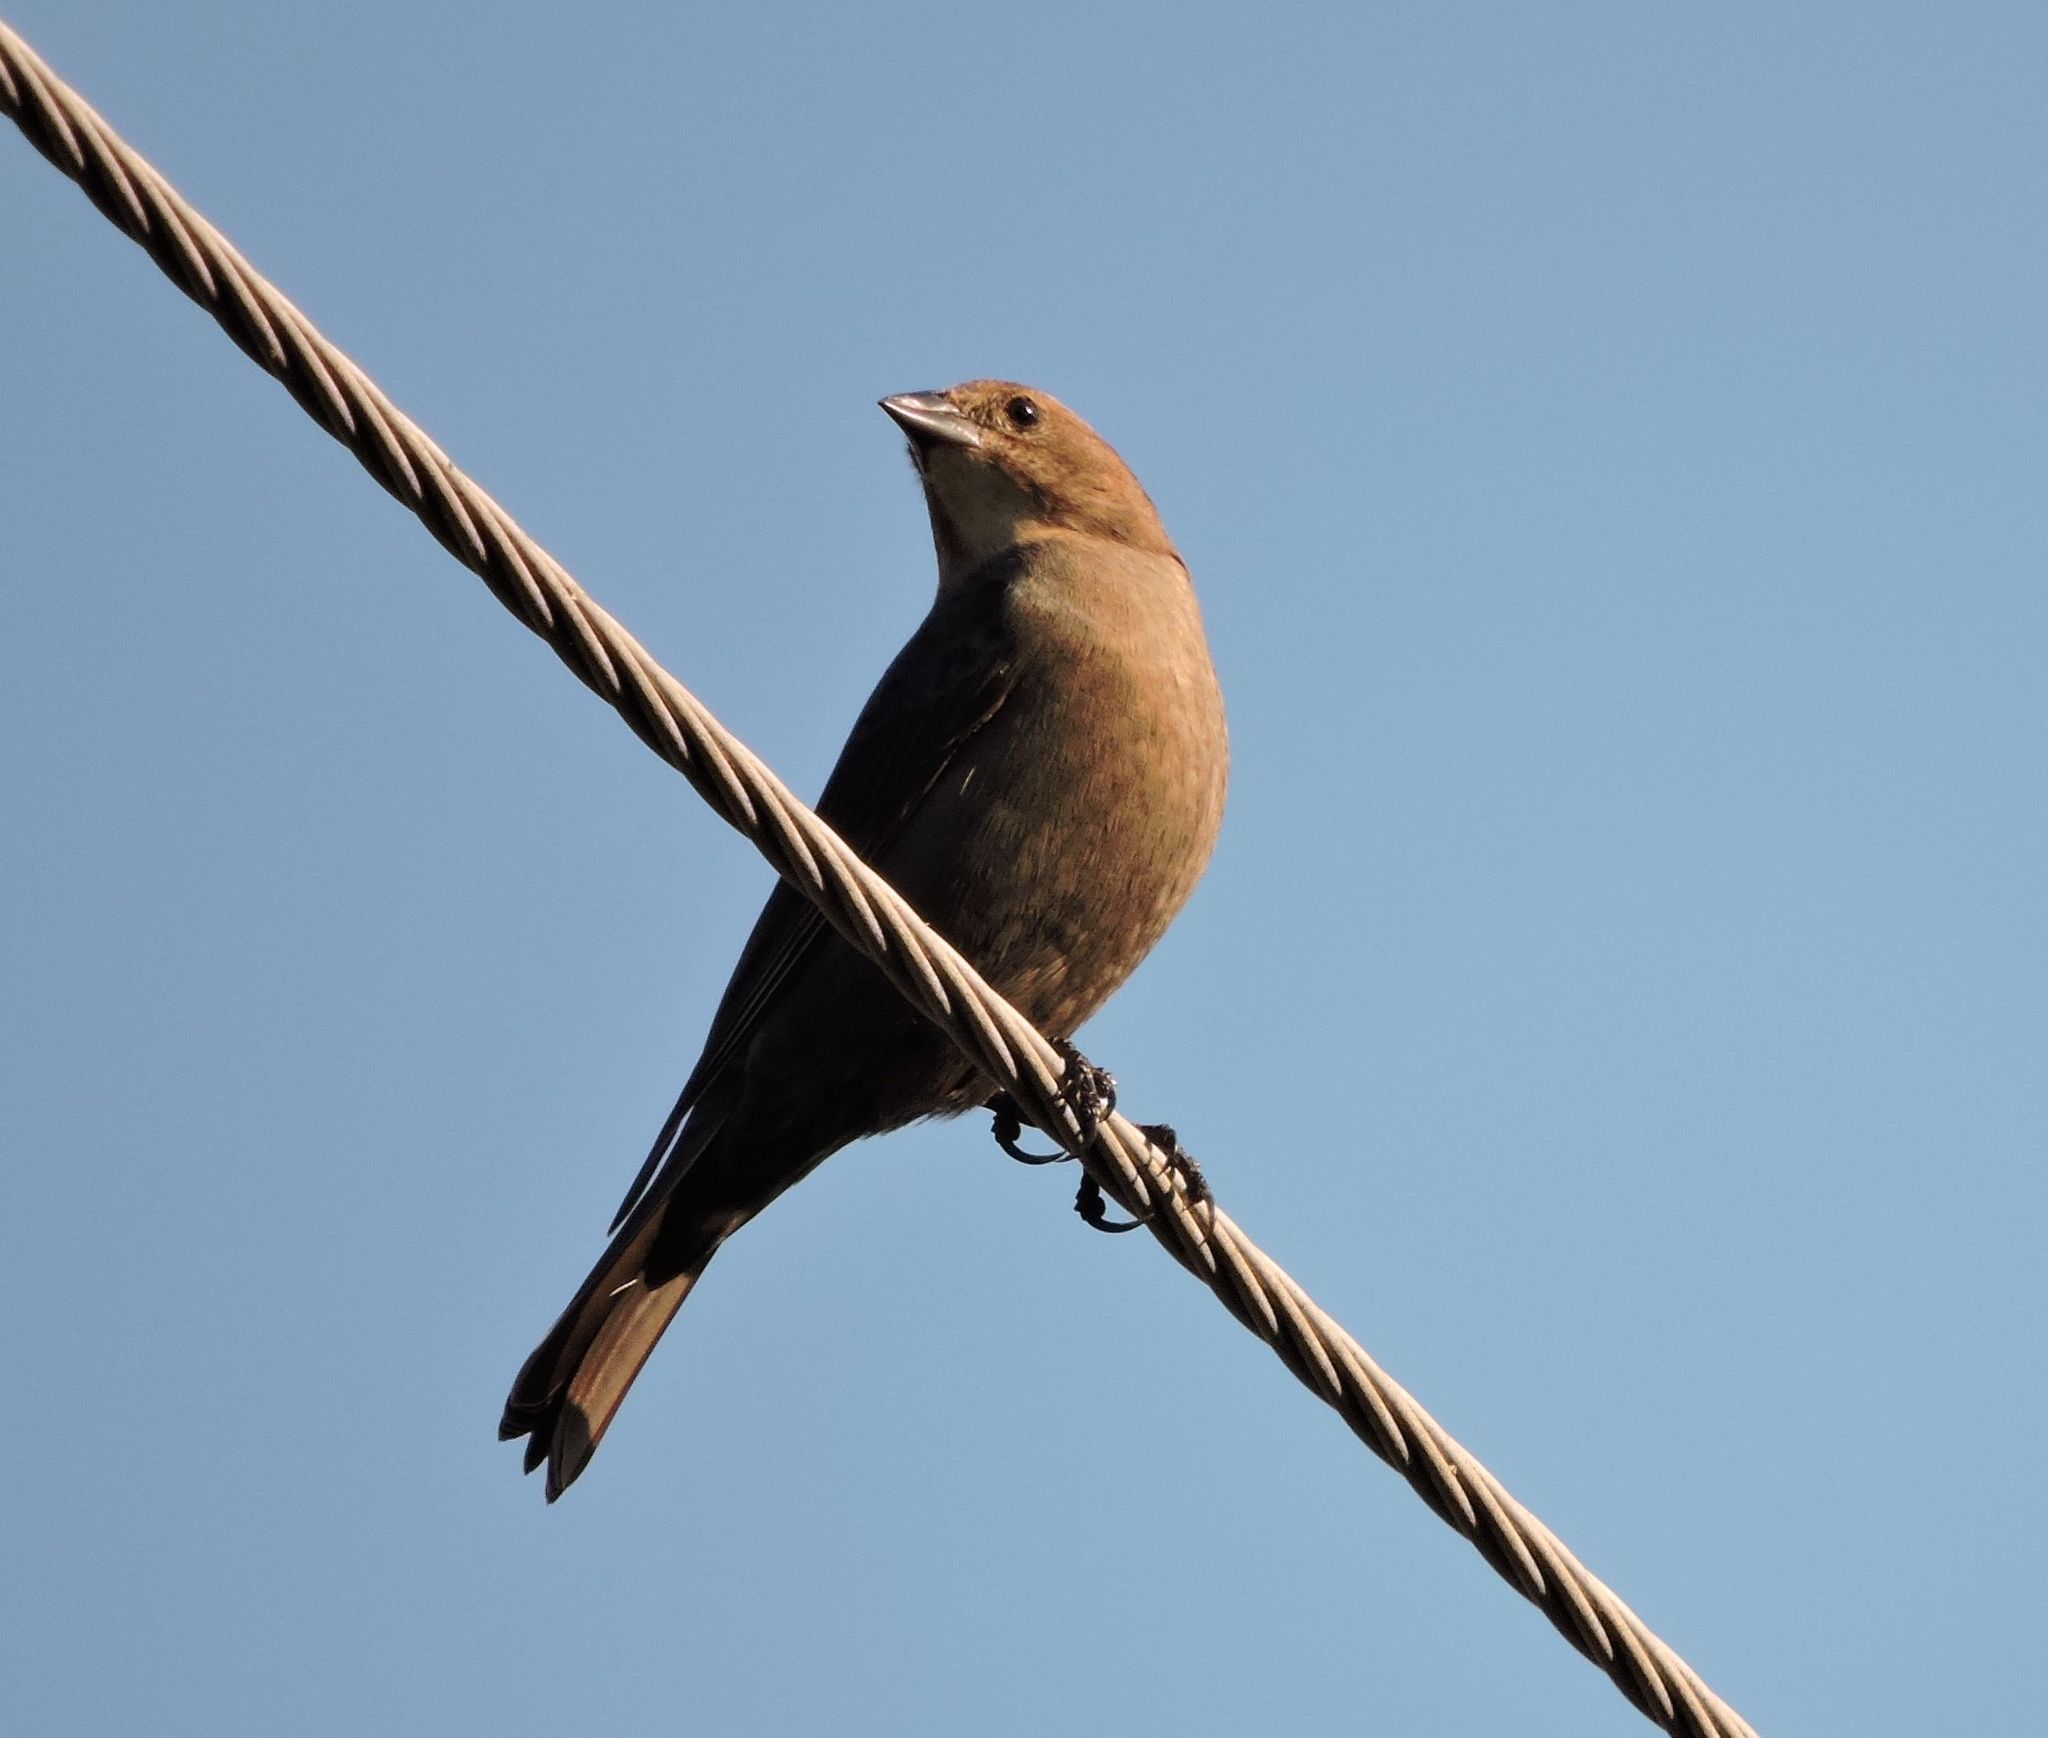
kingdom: Animalia
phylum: Chordata
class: Aves
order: Passeriformes
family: Icteridae
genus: Molothrus
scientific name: Molothrus ater
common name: Brown-headed cowbird
